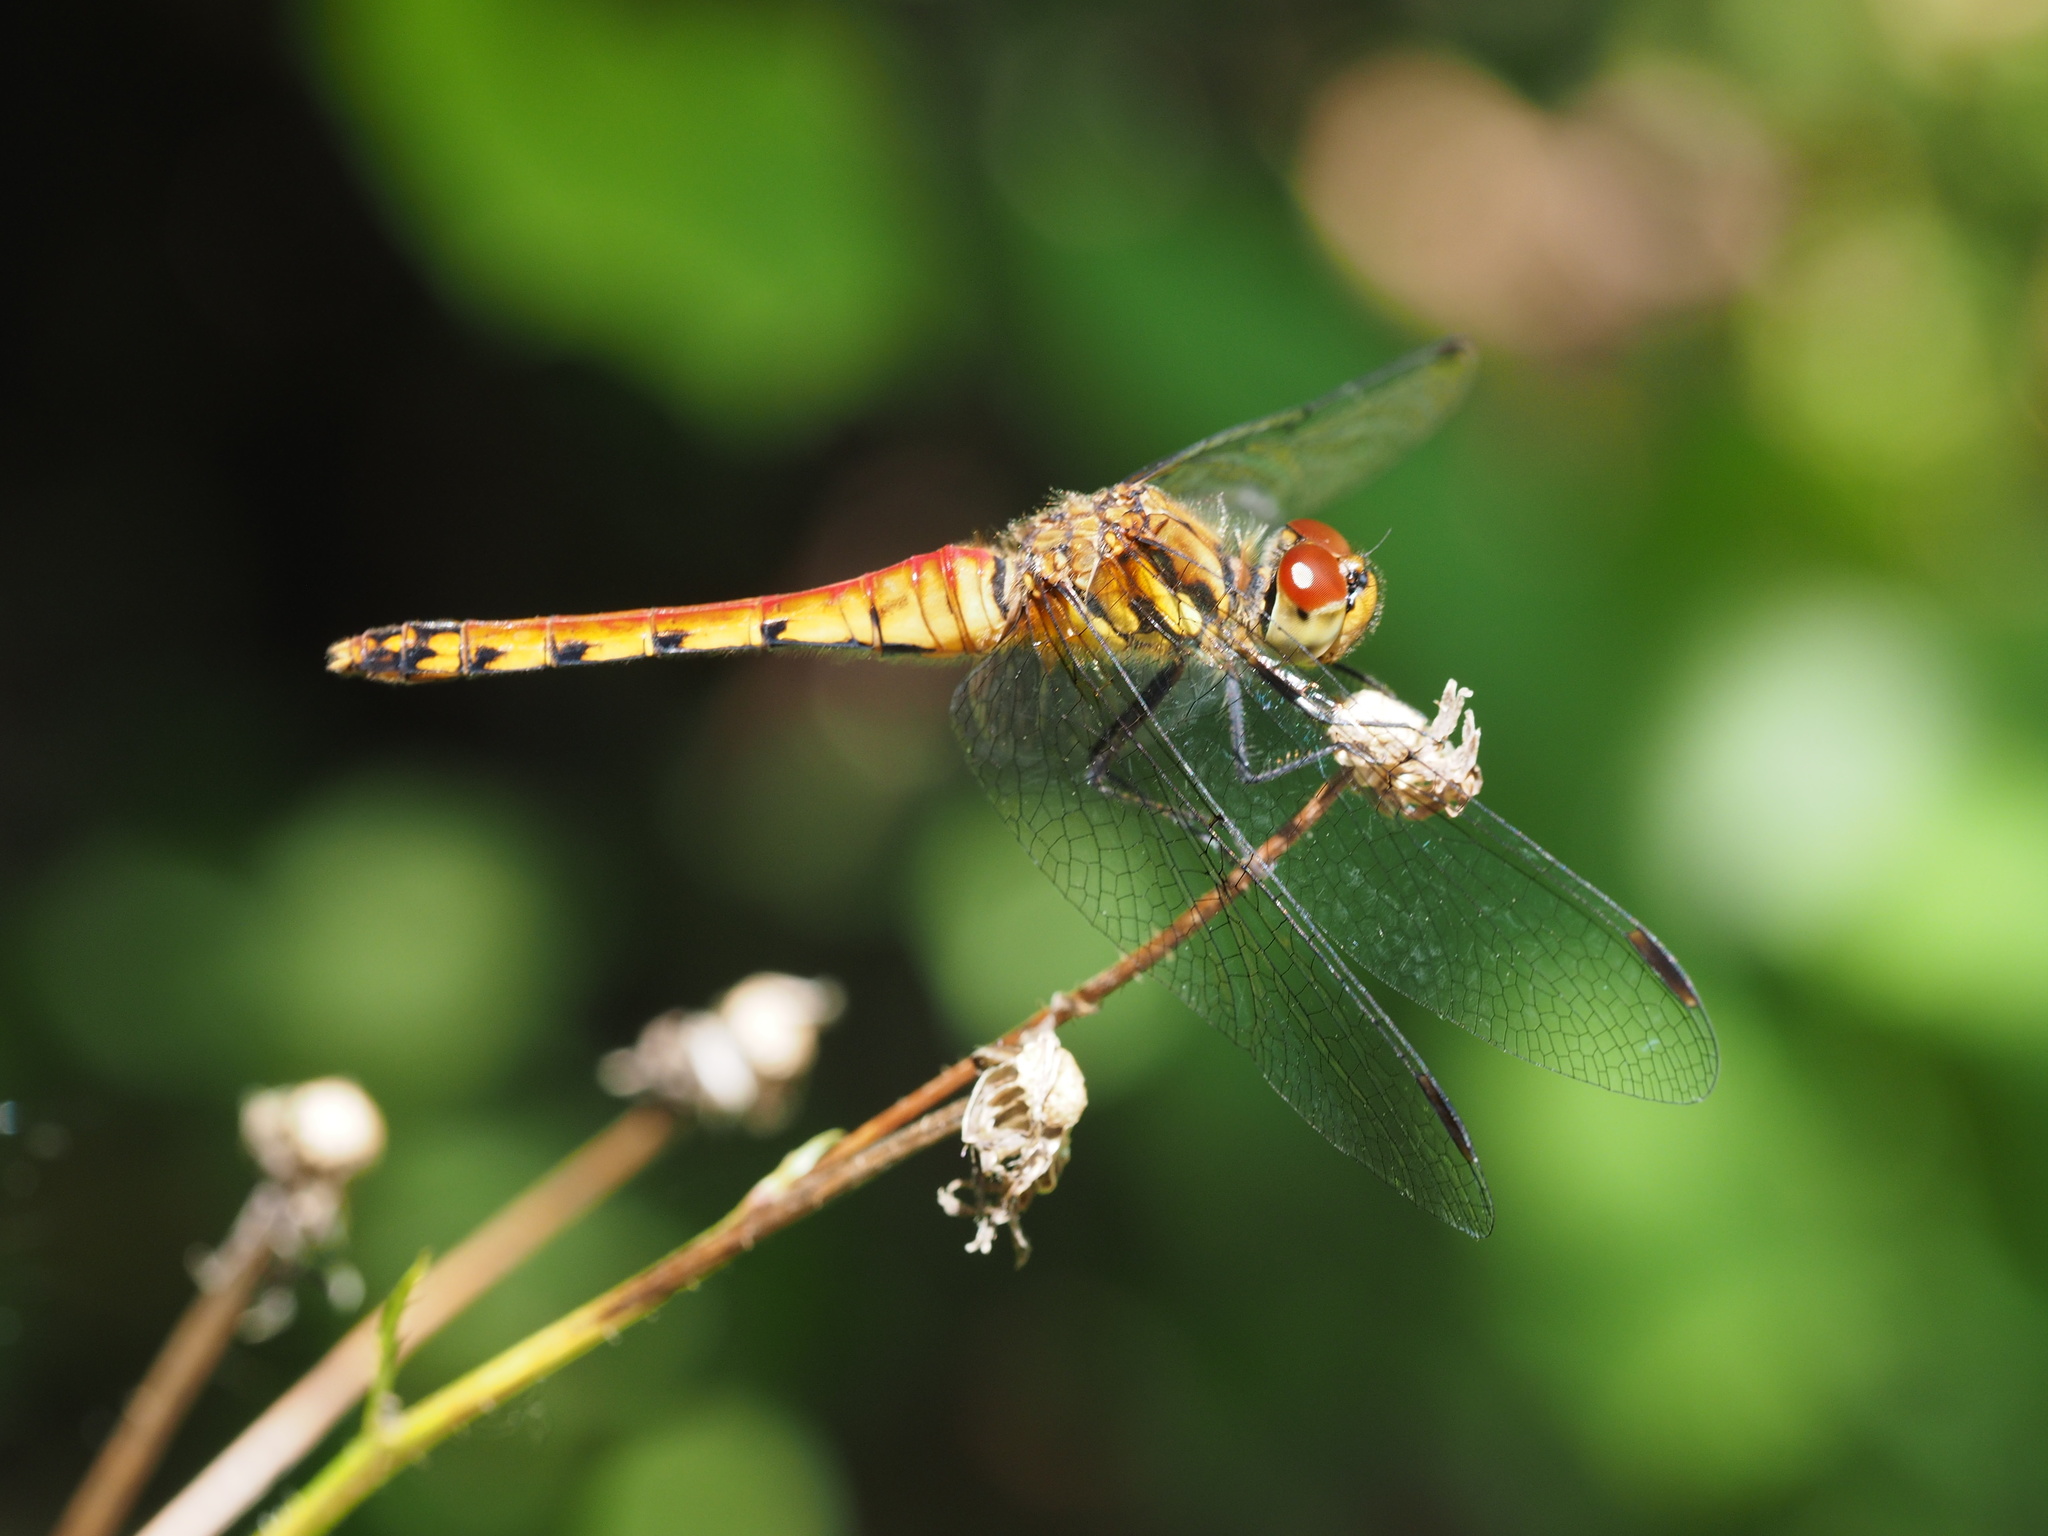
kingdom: Animalia
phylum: Arthropoda
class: Insecta
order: Odonata
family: Libellulidae
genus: Sympetrum
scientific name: Sympetrum darwinianum
